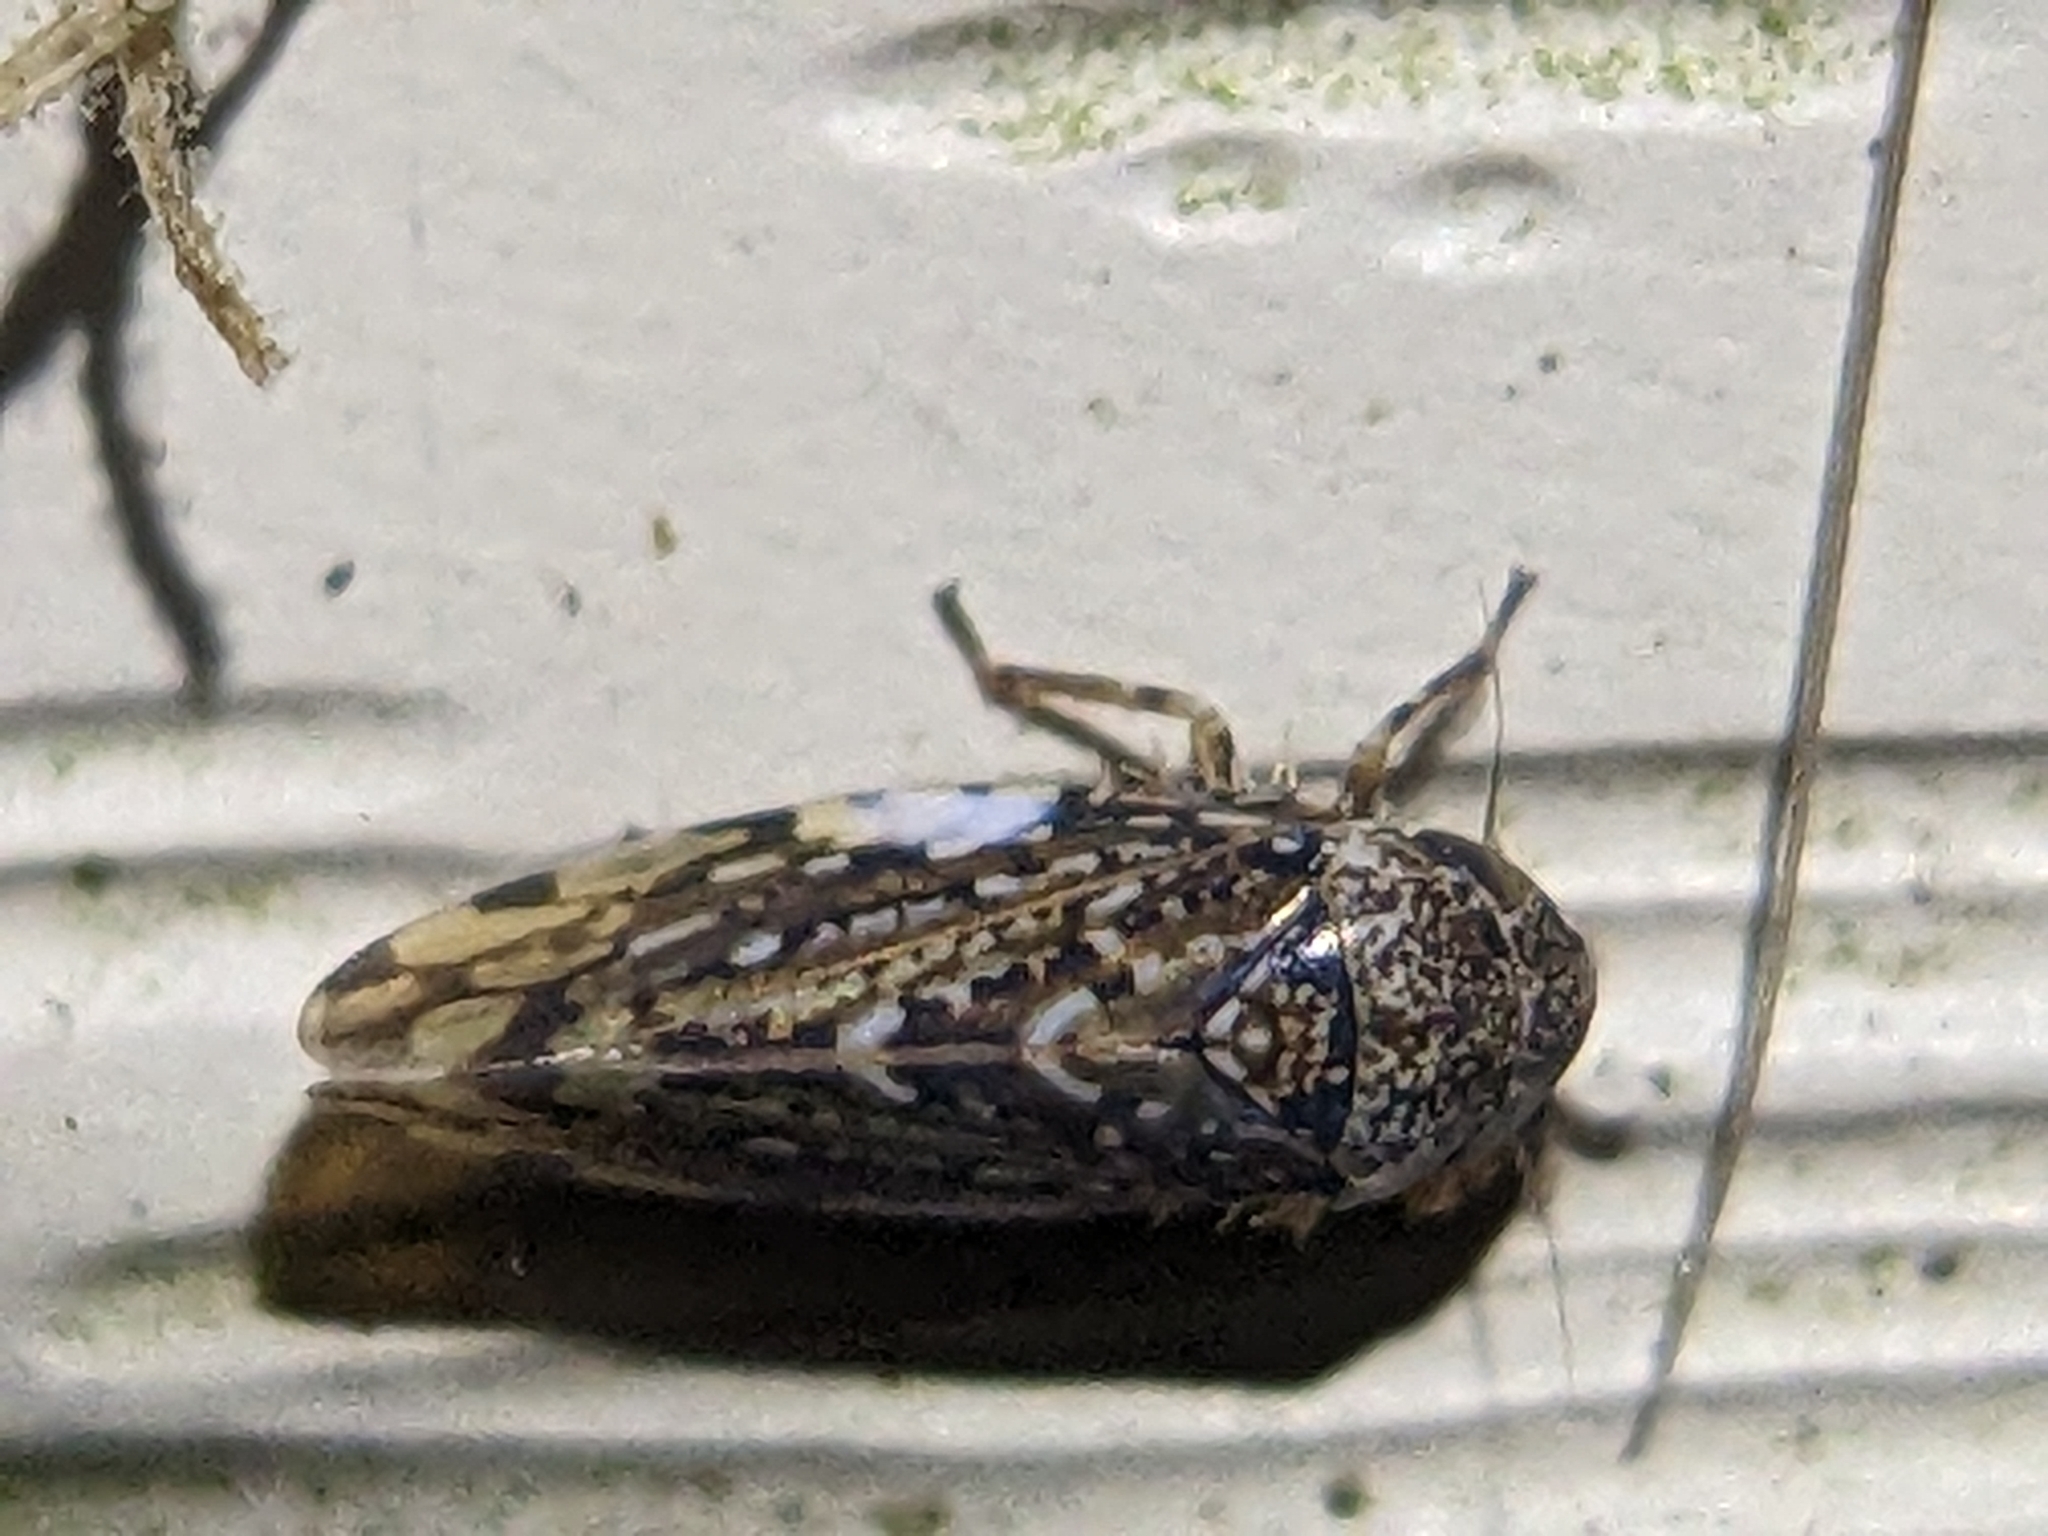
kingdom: Animalia
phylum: Arthropoda
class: Insecta
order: Hemiptera
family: Cicadellidae
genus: Xestocephalus
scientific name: Xestocephalus tessellatus
